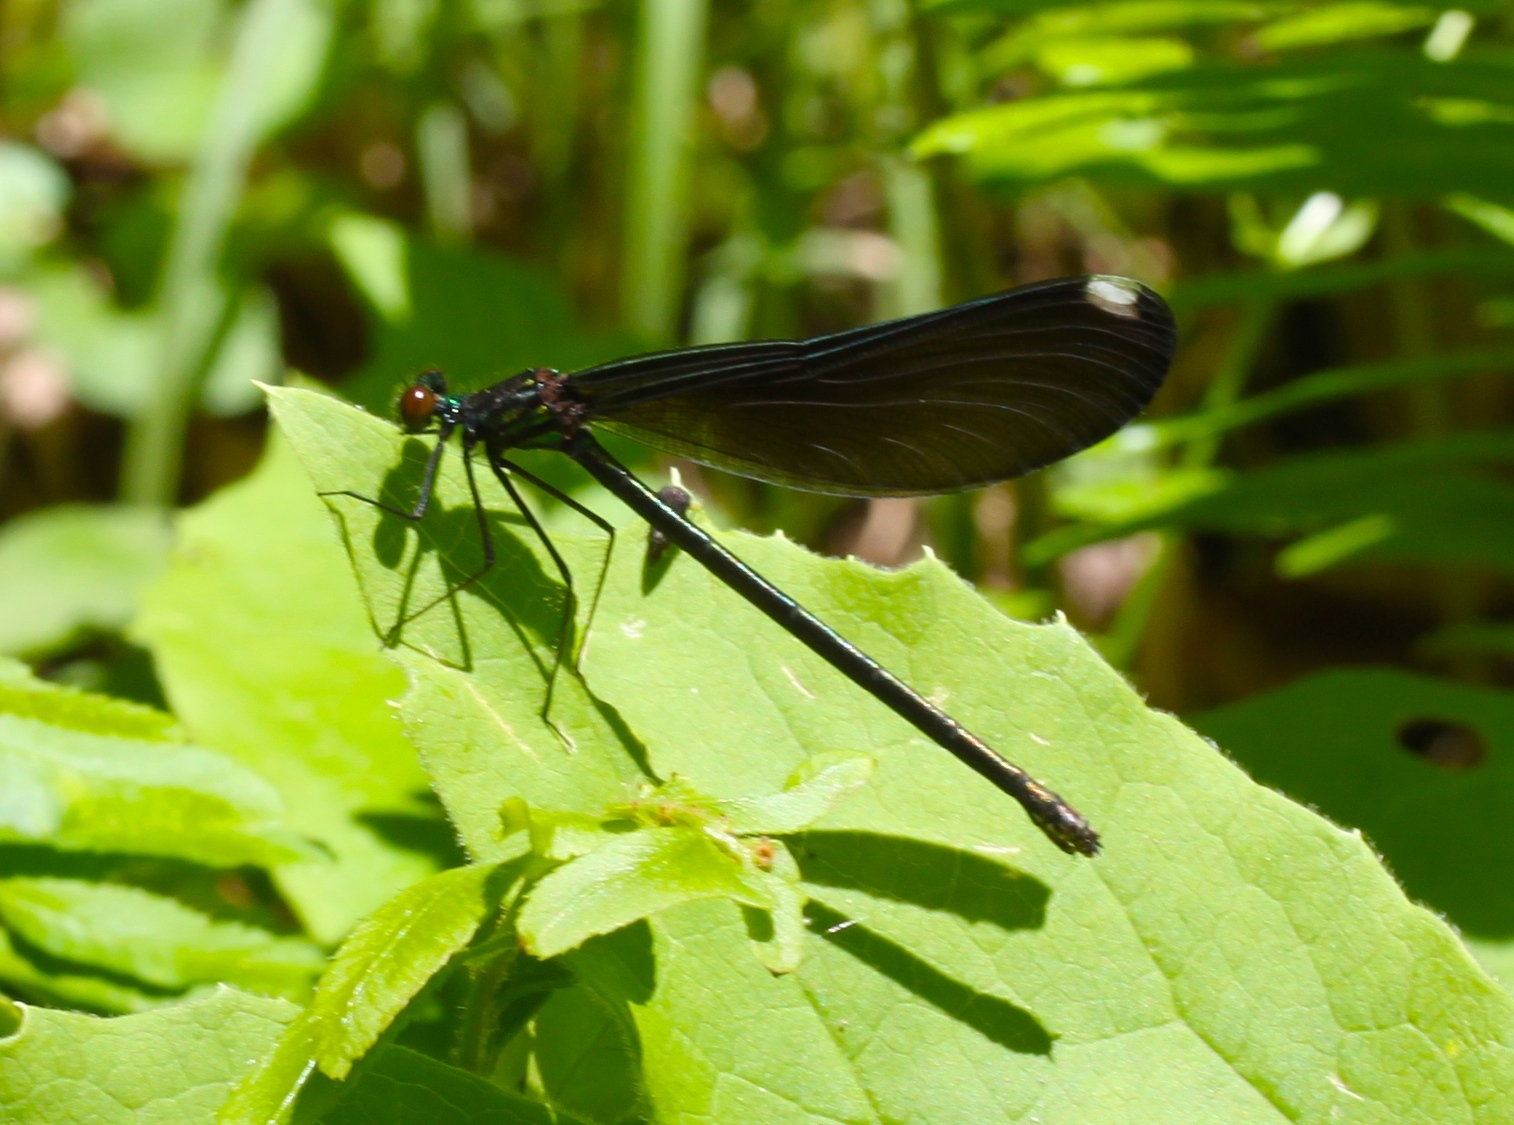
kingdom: Animalia
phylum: Arthropoda
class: Insecta
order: Odonata
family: Calopterygidae
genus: Calopteryx
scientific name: Calopteryx maculata
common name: Ebony jewelwing
